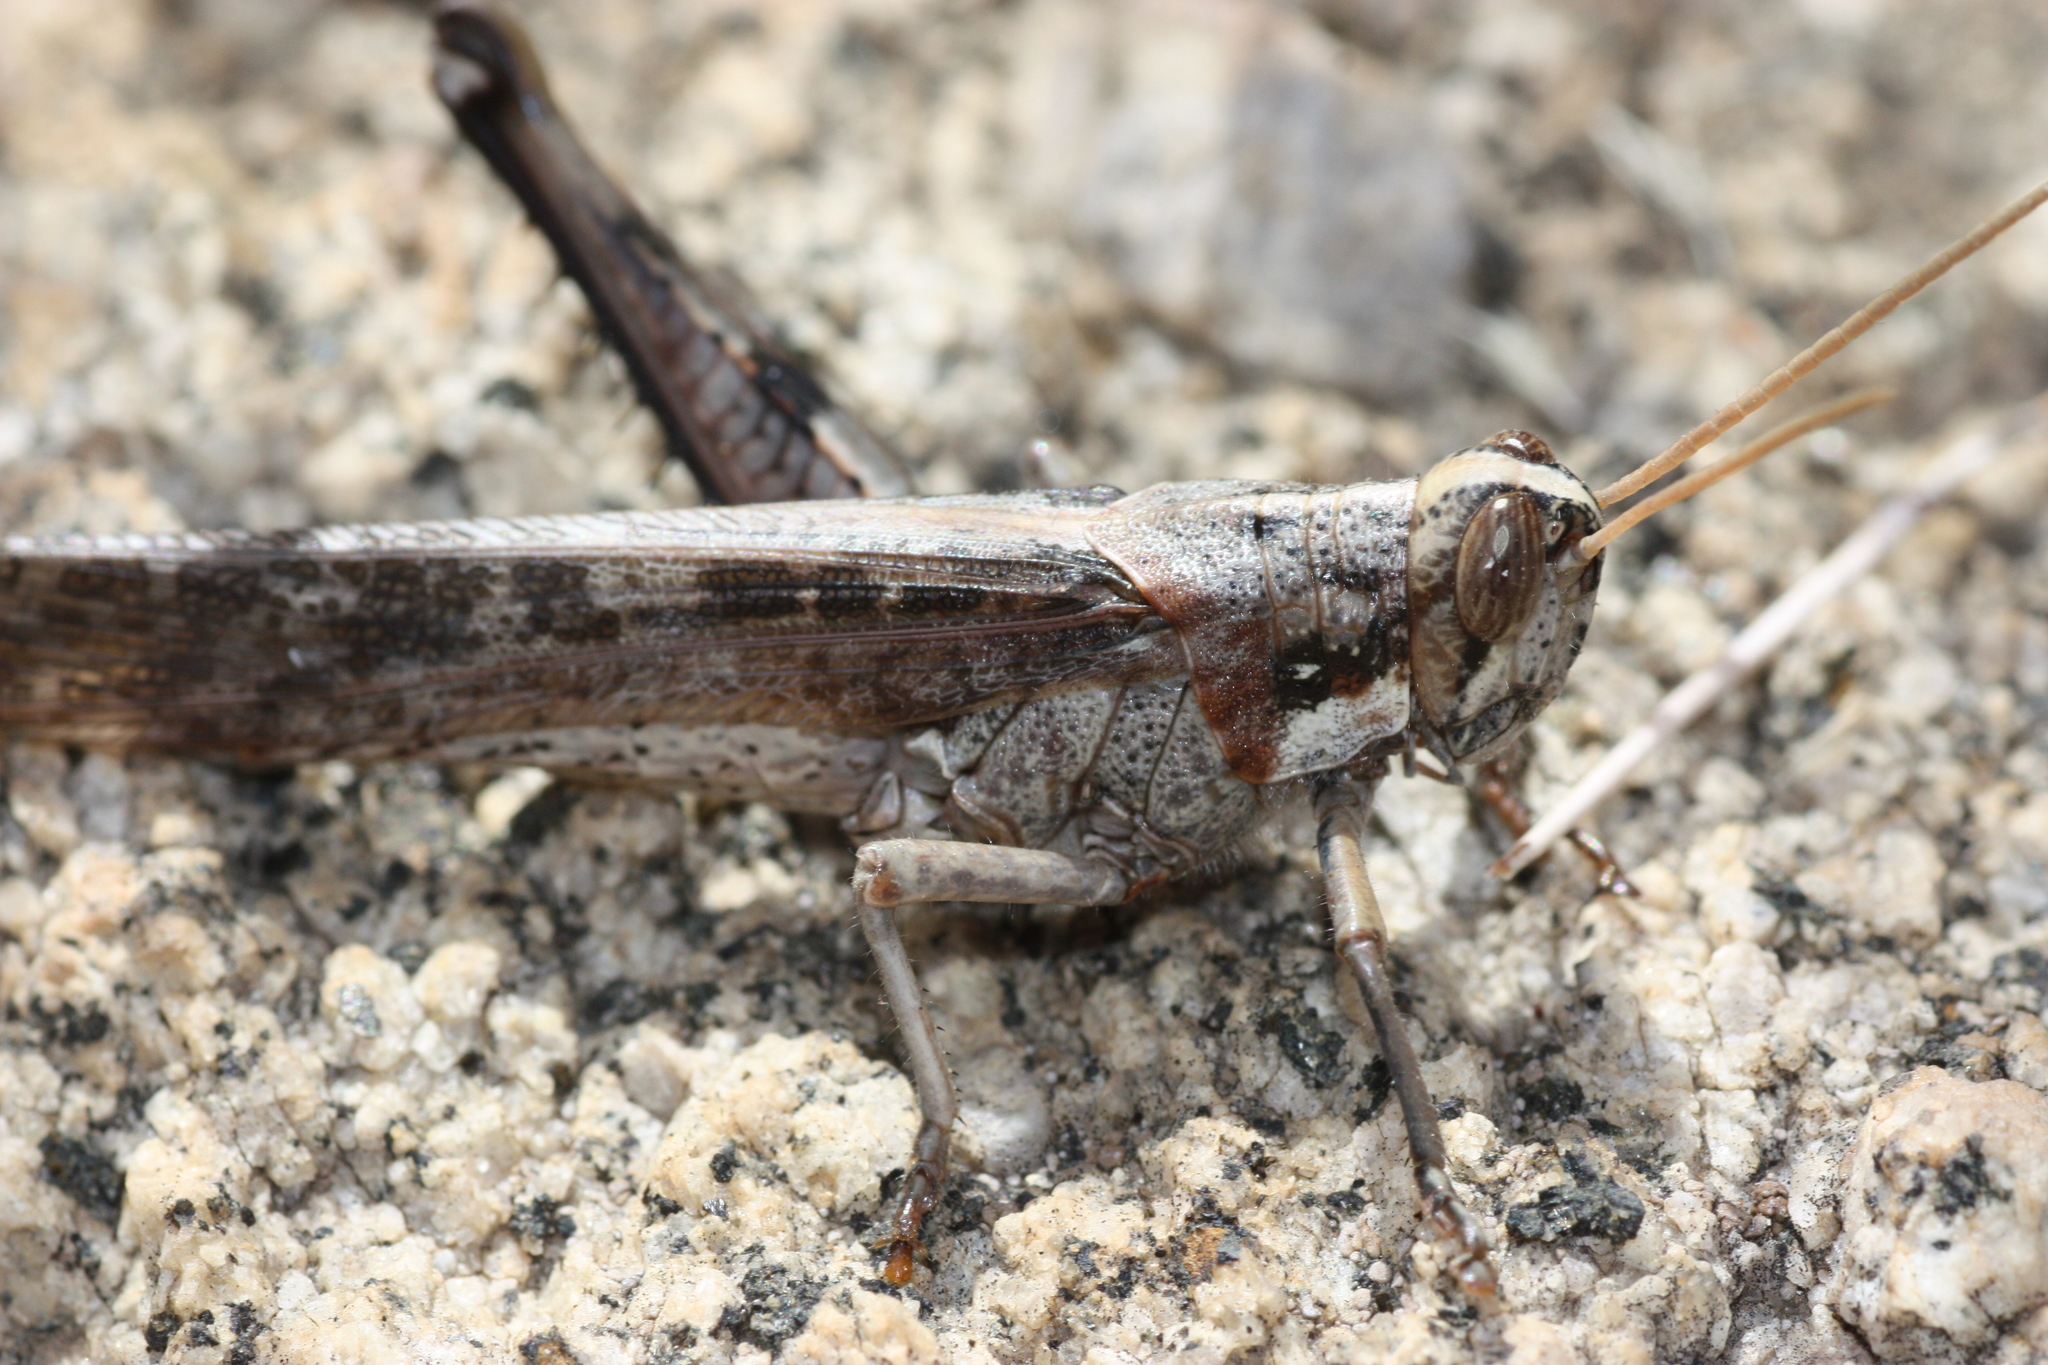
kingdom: Animalia
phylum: Arthropoda
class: Insecta
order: Orthoptera
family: Acrididae
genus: Schistocerca
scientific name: Schistocerca nitens
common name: Vagrant grasshopper
